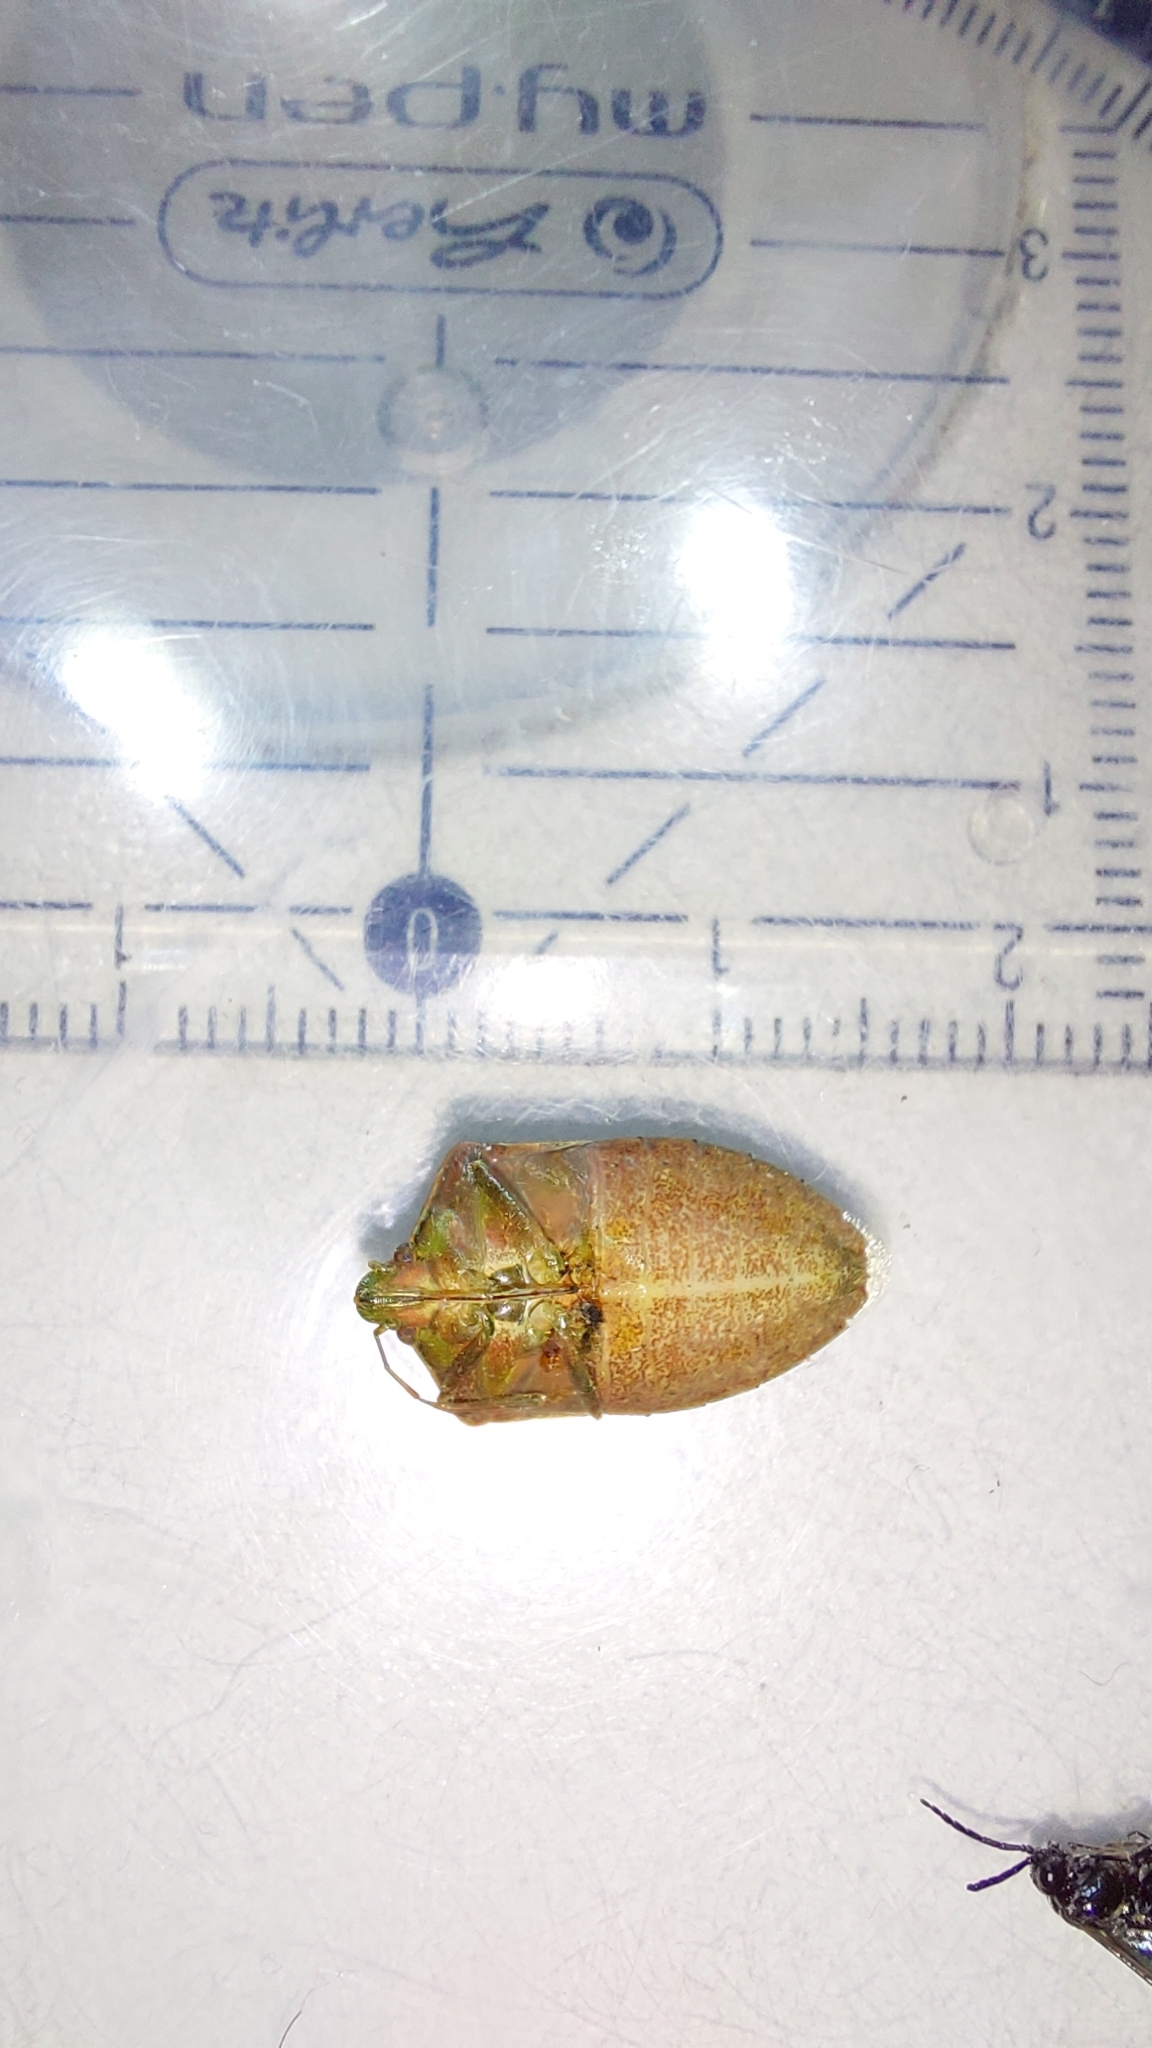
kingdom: Animalia
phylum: Arthropoda
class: Insecta
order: Hemiptera
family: Pentatomidae
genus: Nezara
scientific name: Nezara viridula
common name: Southern green stink bug
